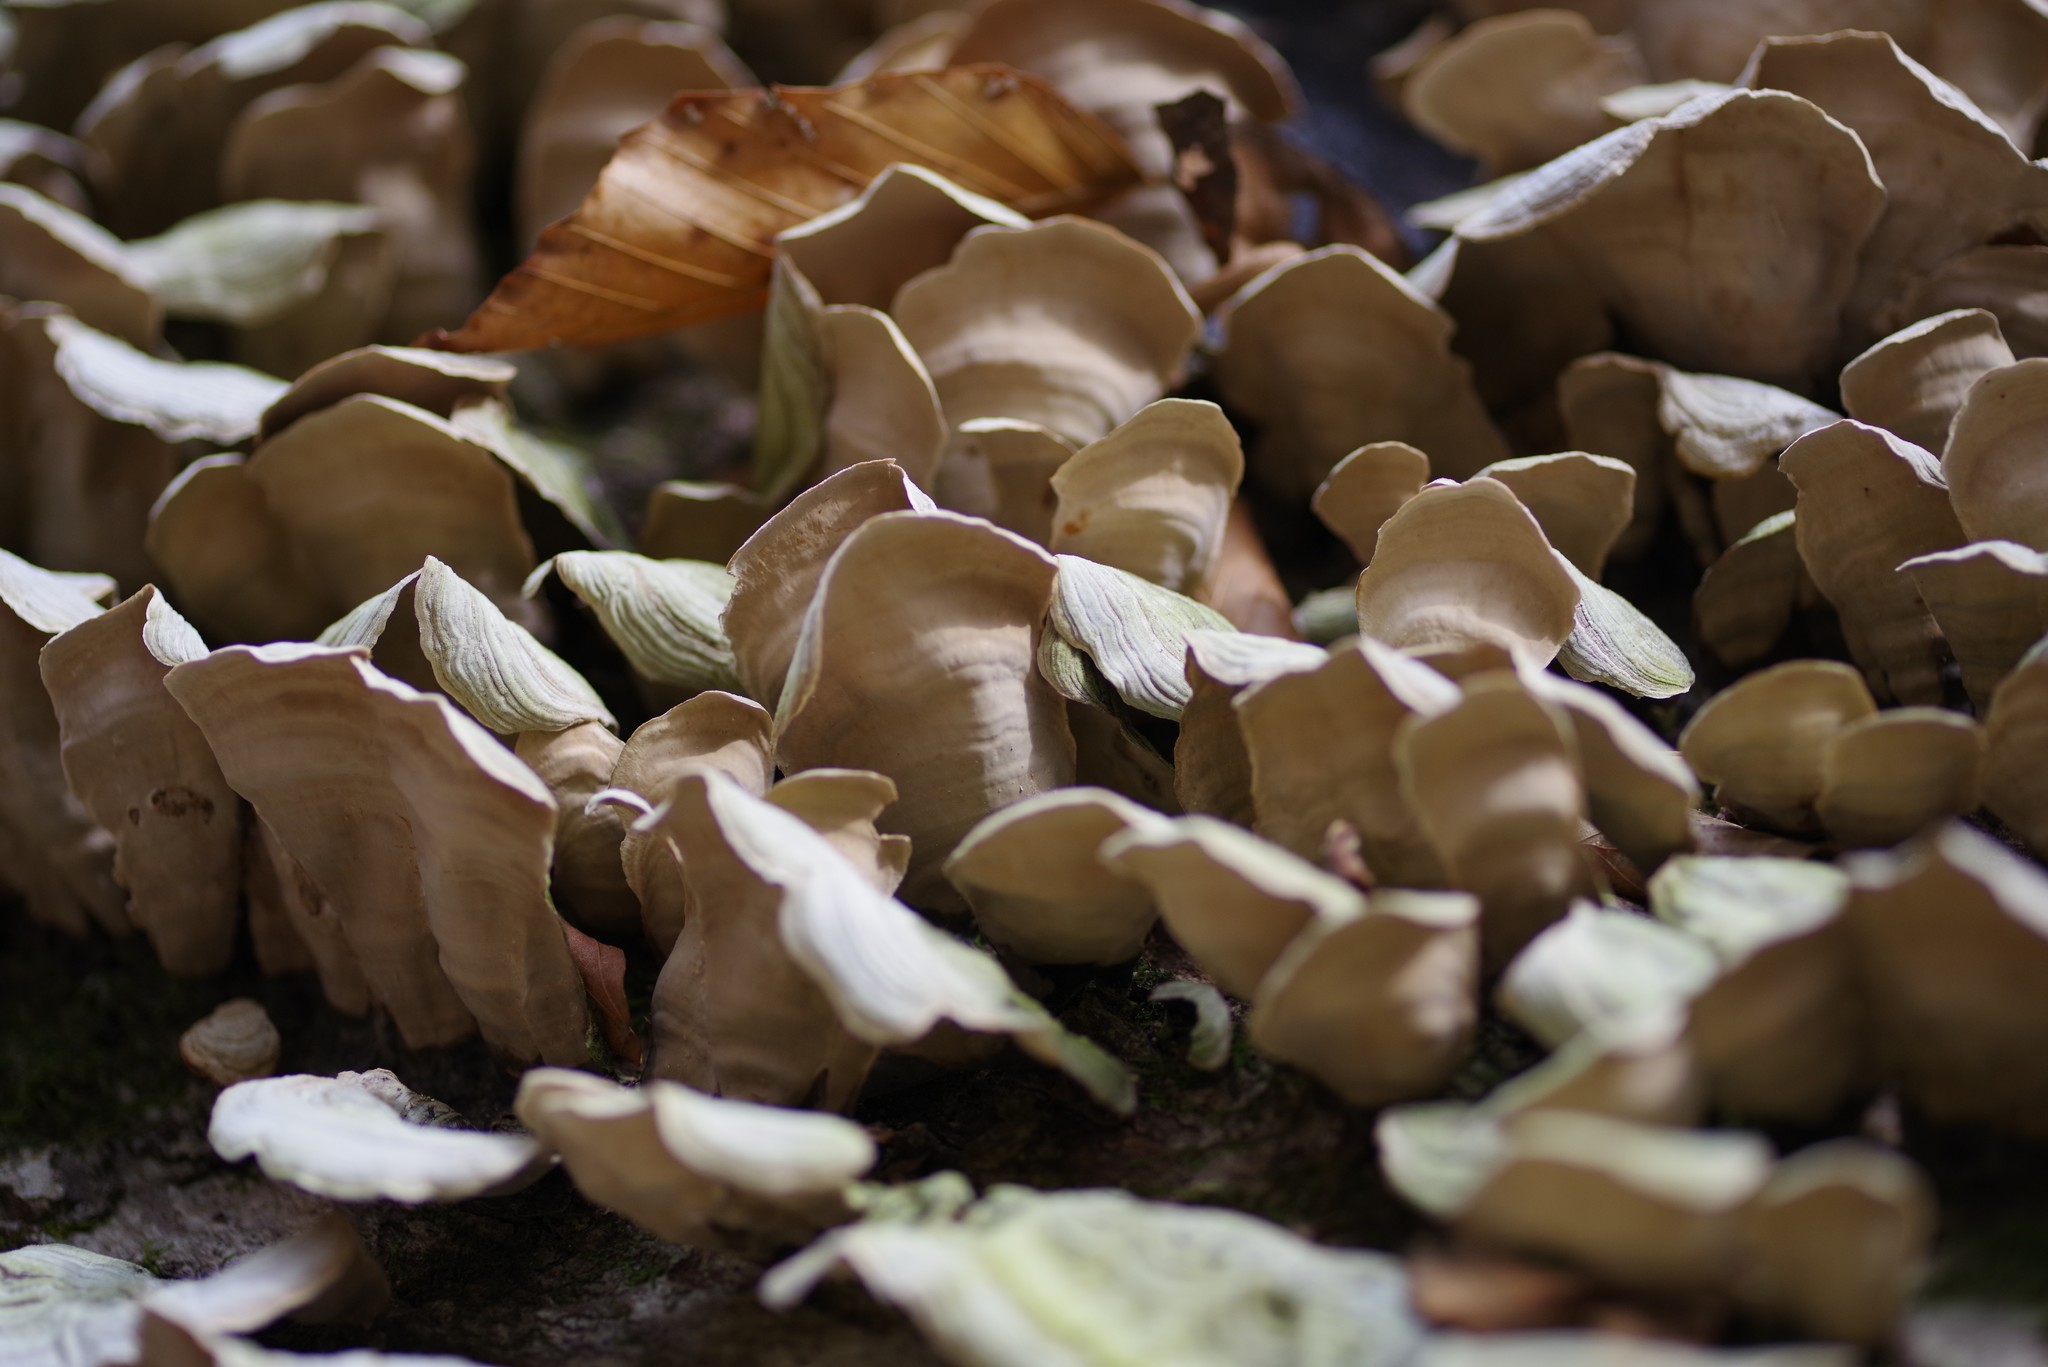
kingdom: Fungi
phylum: Basidiomycota
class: Agaricomycetes
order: Russulales
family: Stereaceae
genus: Stereum
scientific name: Stereum ostrea
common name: False turkeytail
